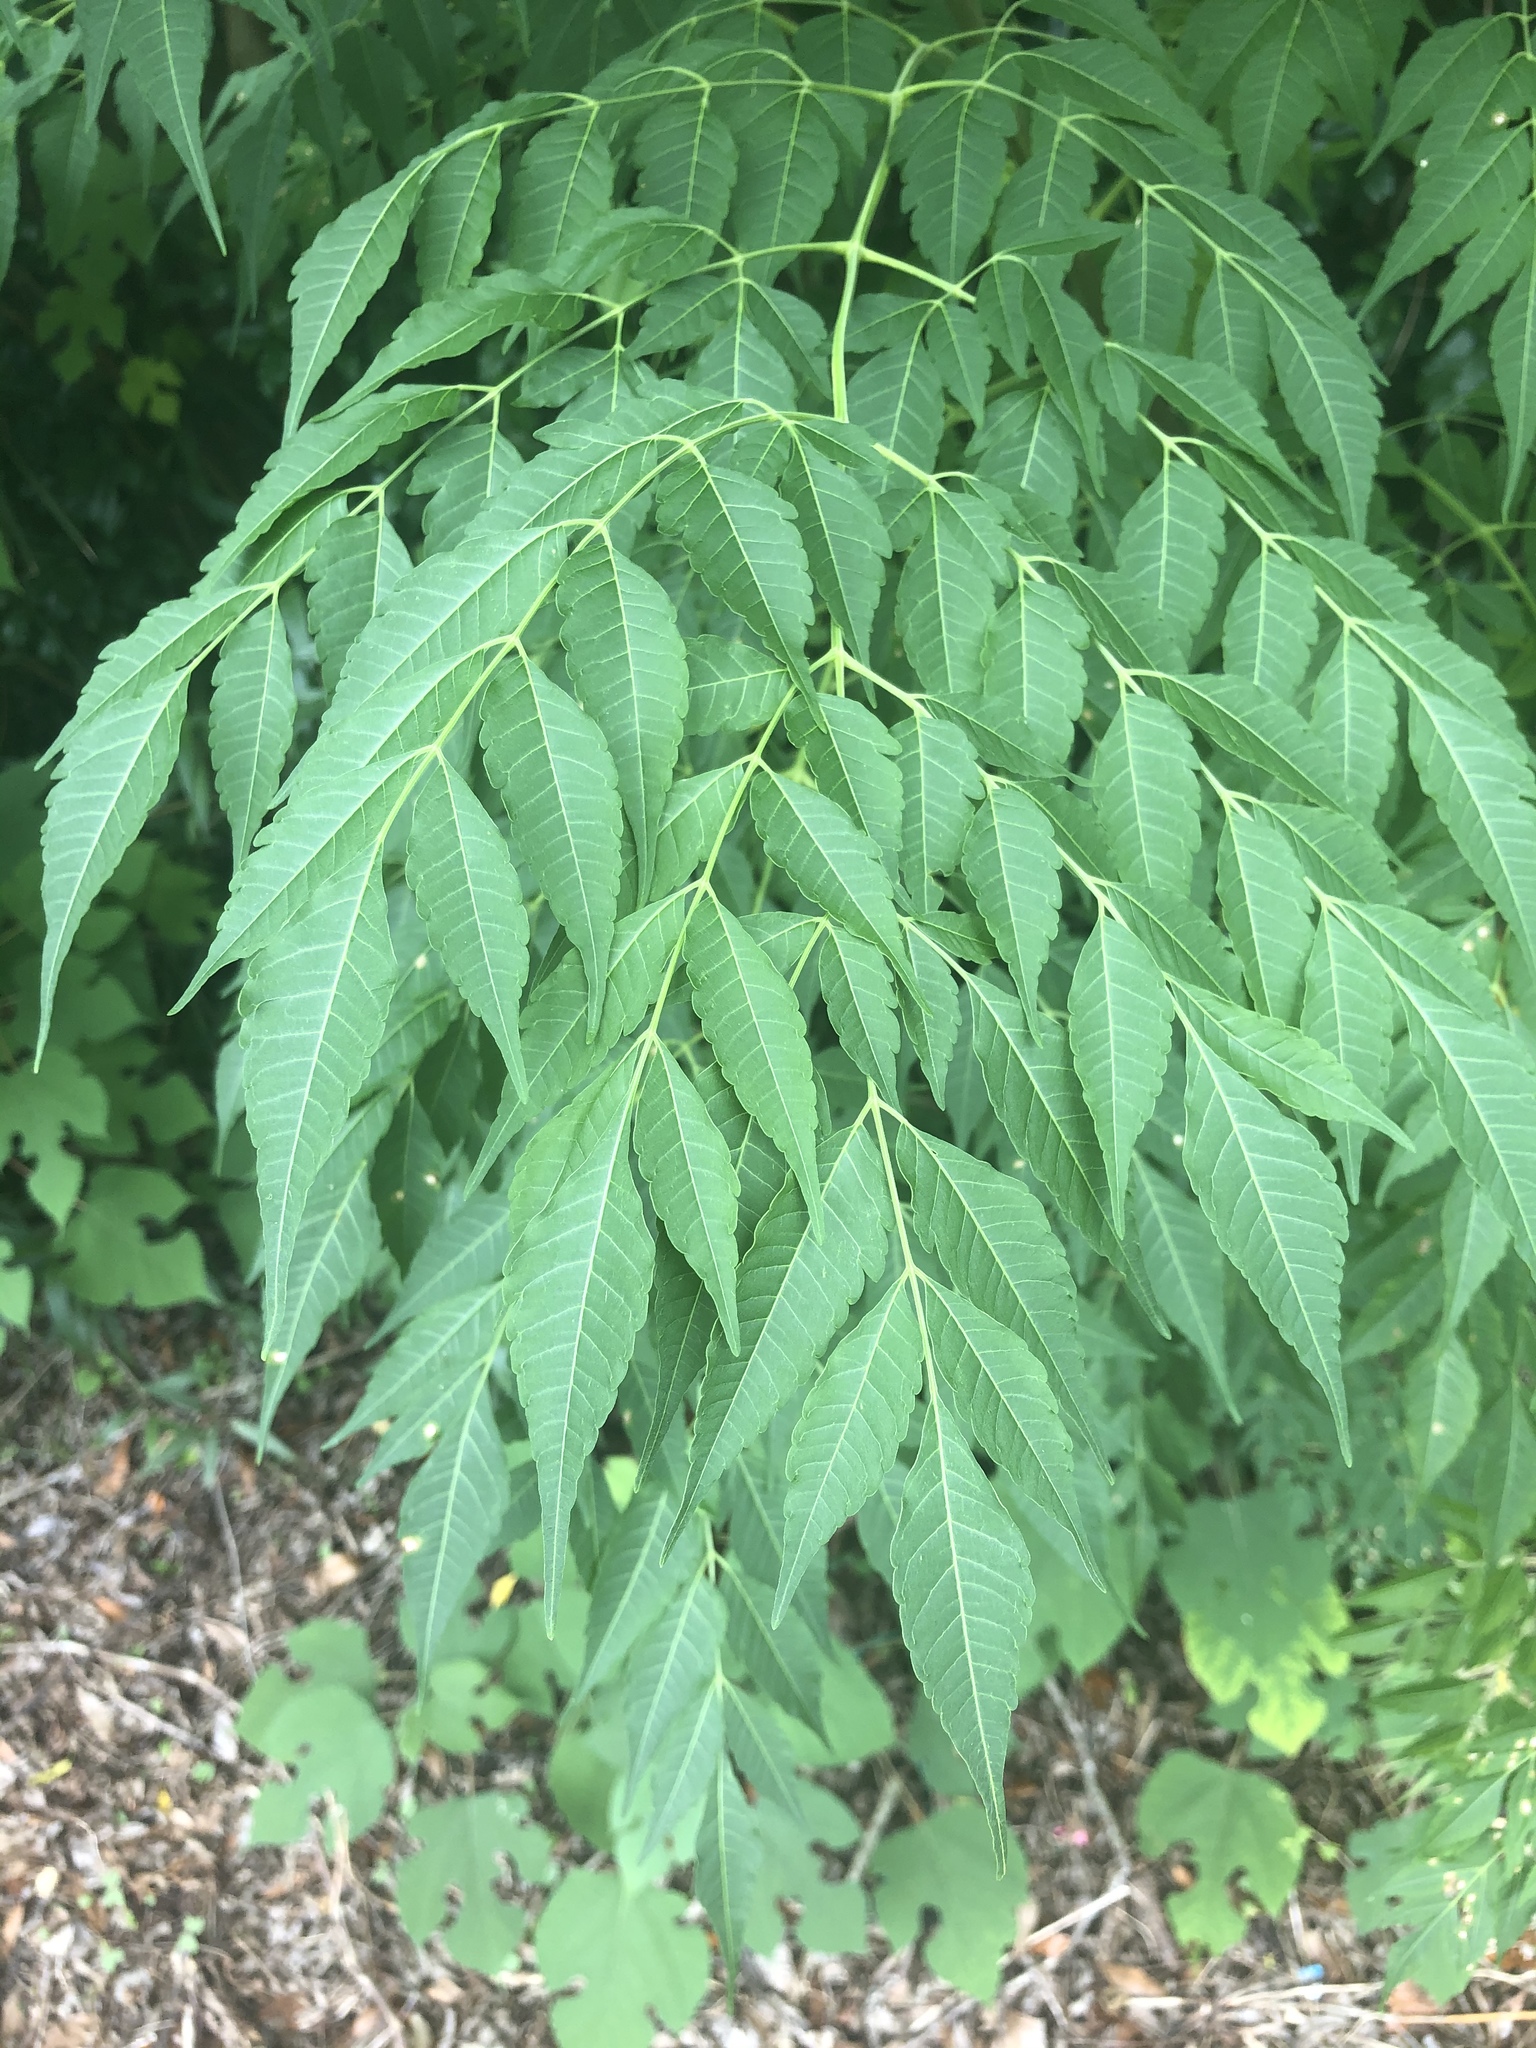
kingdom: Plantae
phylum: Tracheophyta
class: Magnoliopsida
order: Sapindales
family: Meliaceae
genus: Melia
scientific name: Melia azedarach
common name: Chinaberrytree
